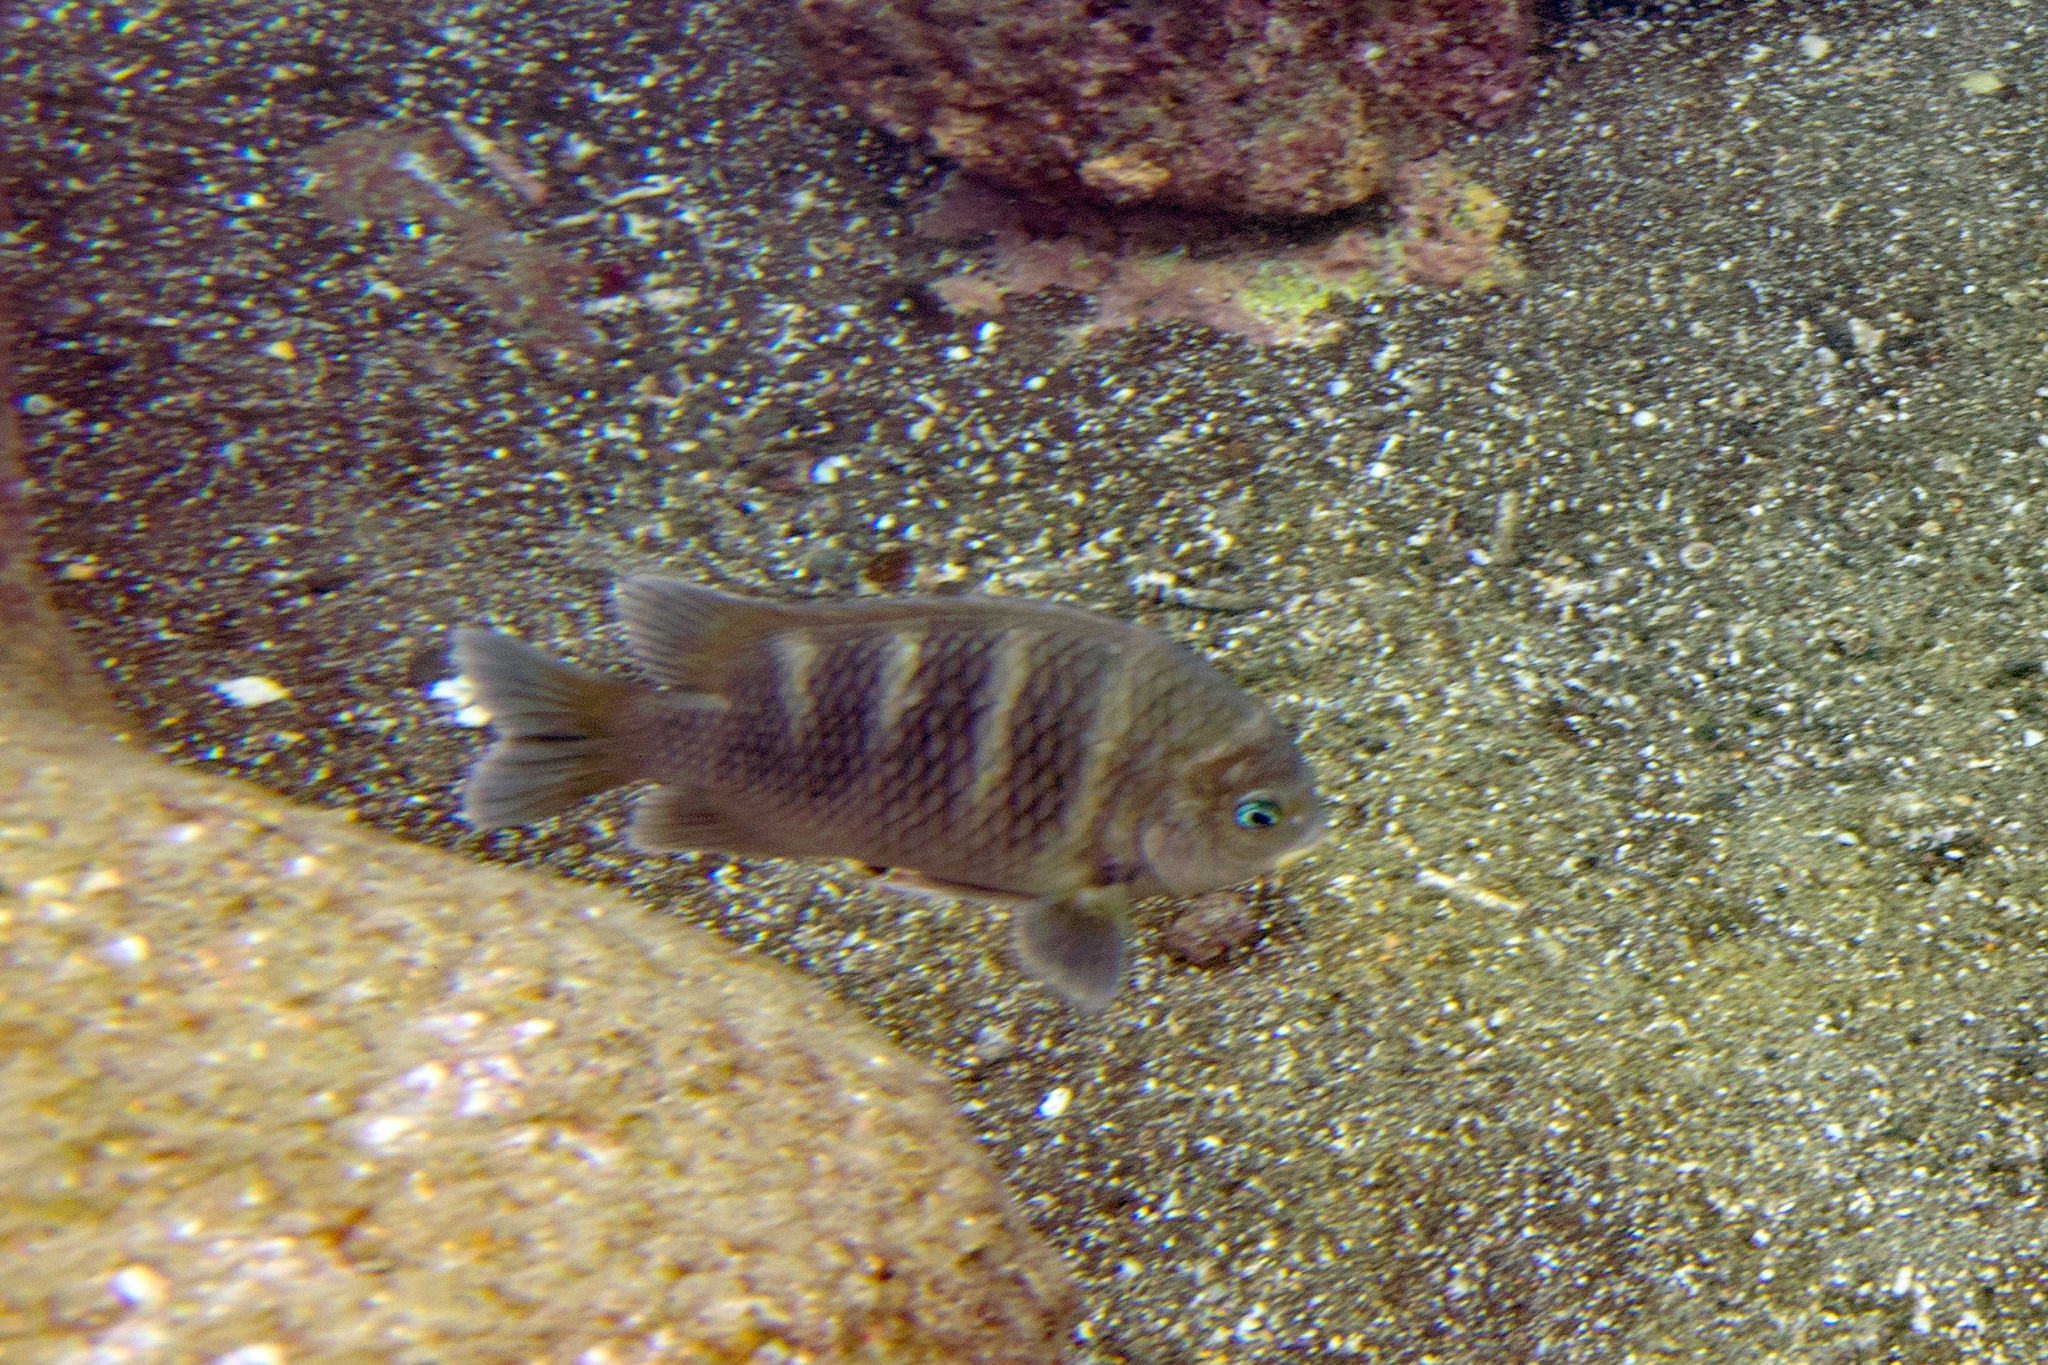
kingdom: Animalia
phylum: Chordata
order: Perciformes
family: Pomacentridae
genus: Abudefduf
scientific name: Abudefduf concolor
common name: Dusky seargent
